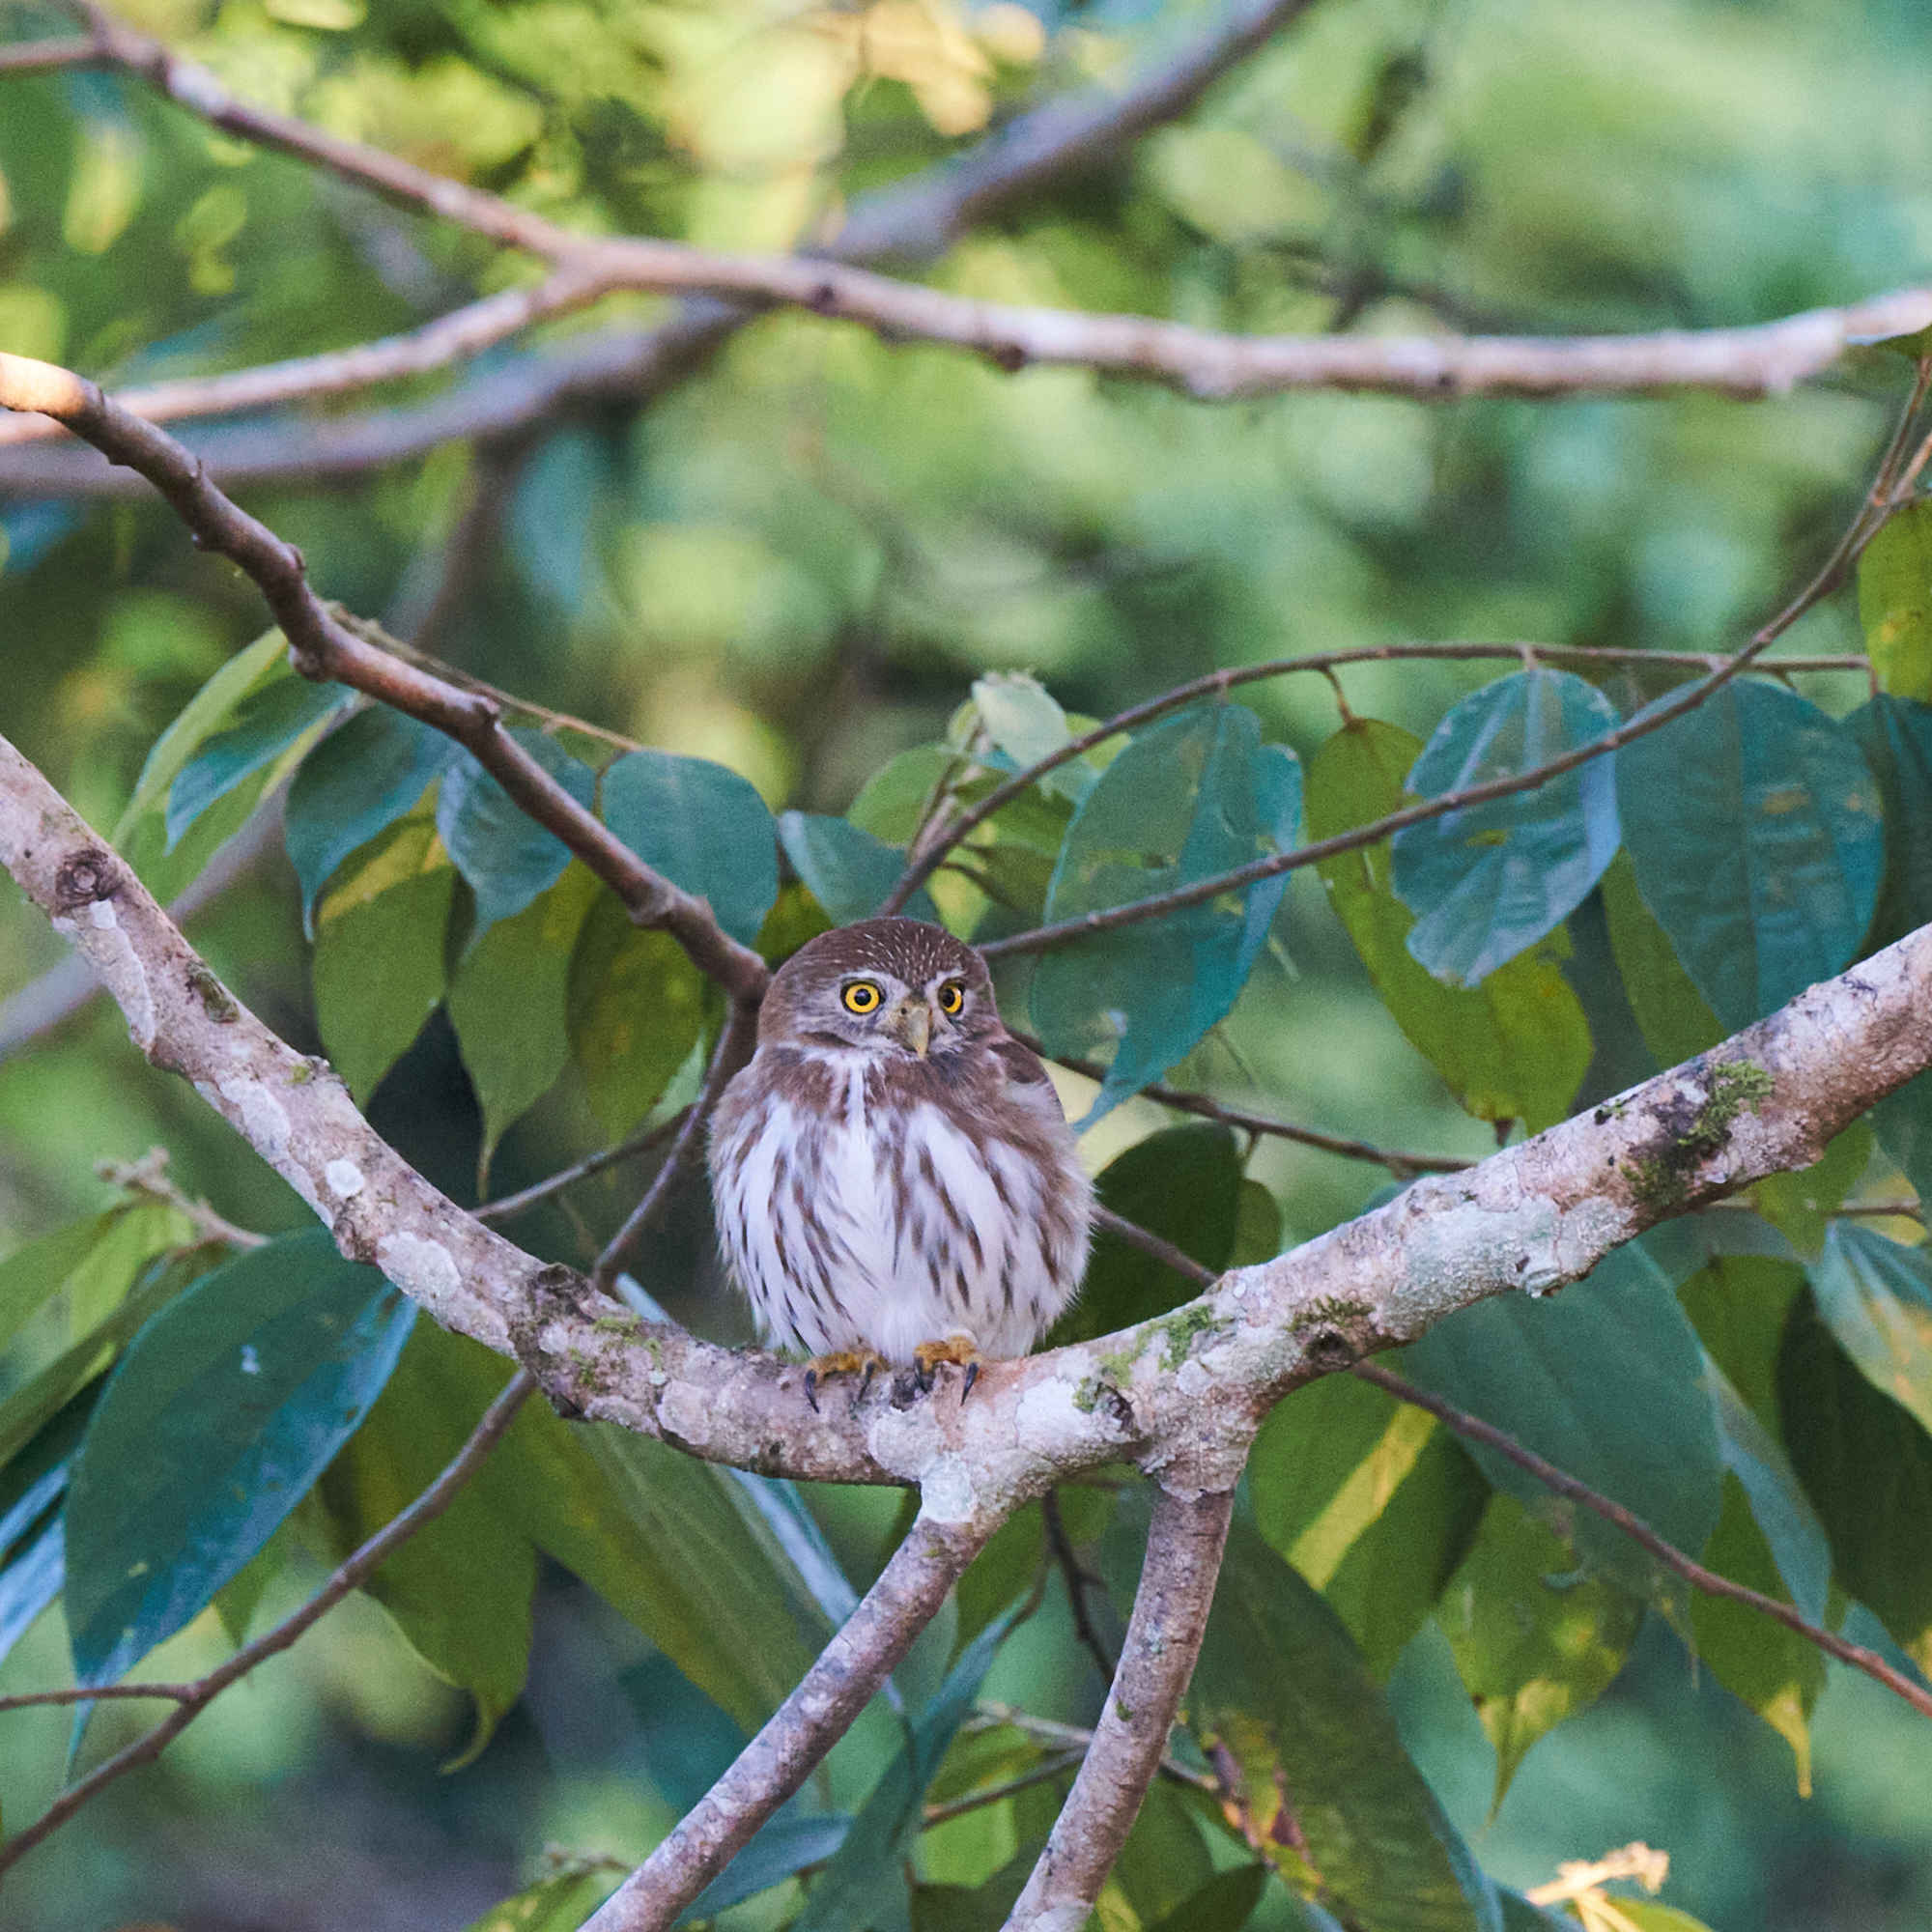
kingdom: Animalia
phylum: Chordata
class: Aves
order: Strigiformes
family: Strigidae
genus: Glaucidium
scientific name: Glaucidium brasilianum
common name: Ferruginous pygmy-owl
